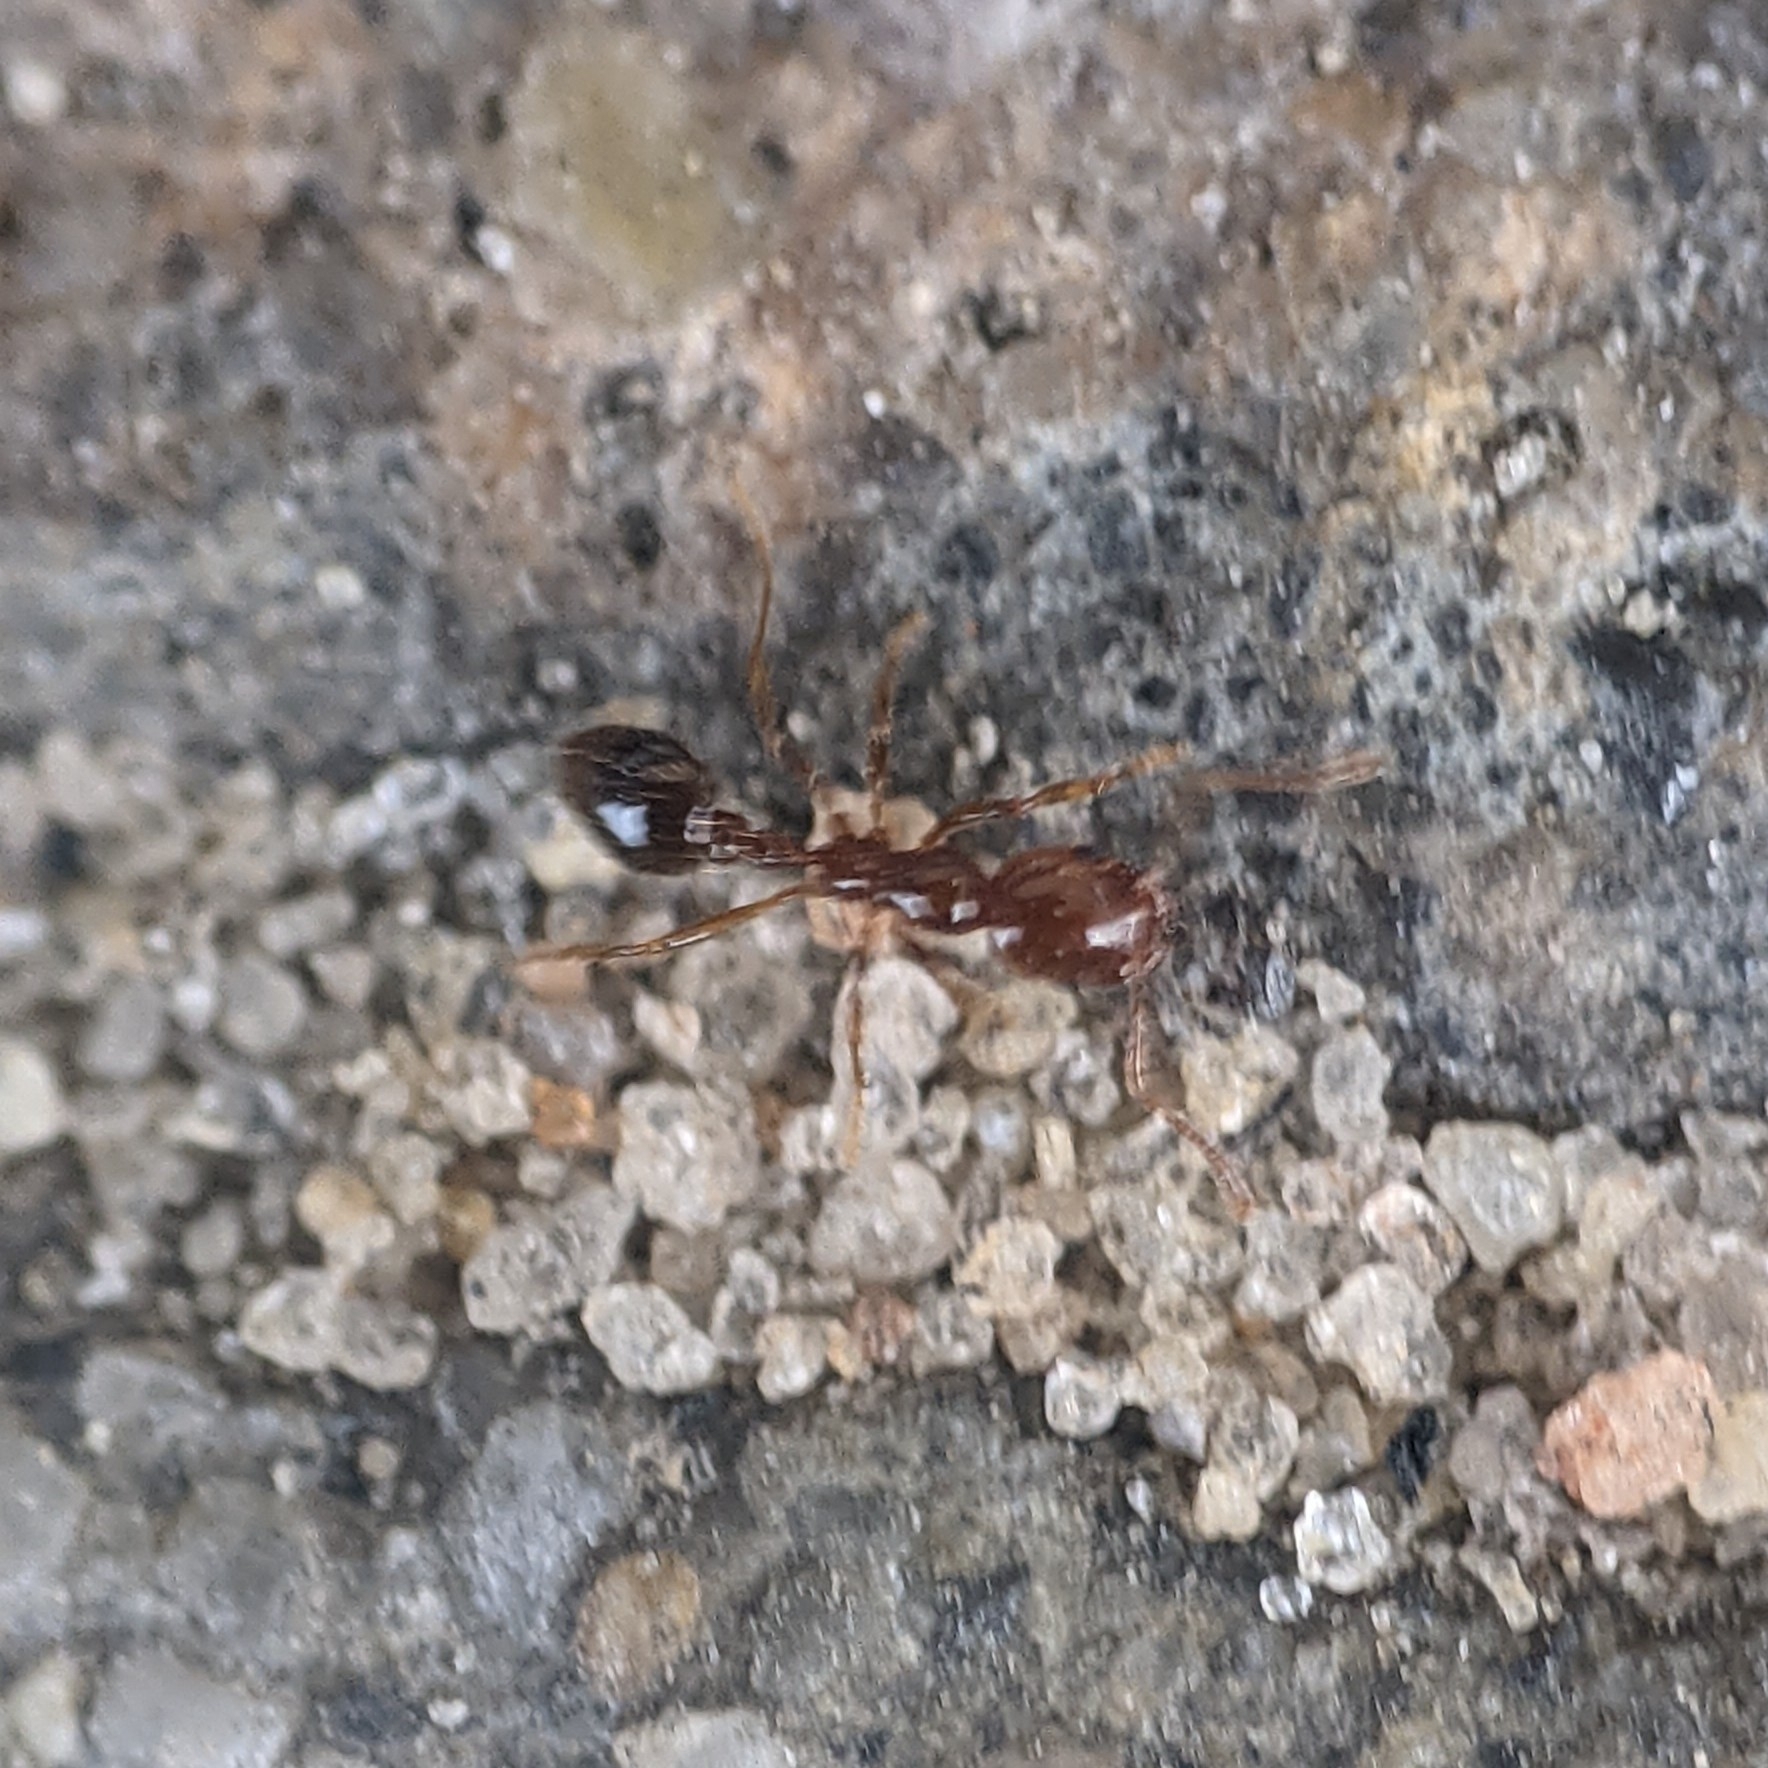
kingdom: Animalia
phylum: Arthropoda
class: Insecta
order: Hymenoptera
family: Formicidae
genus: Solenopsis
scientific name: Solenopsis invicta
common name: Red imported fire ant
